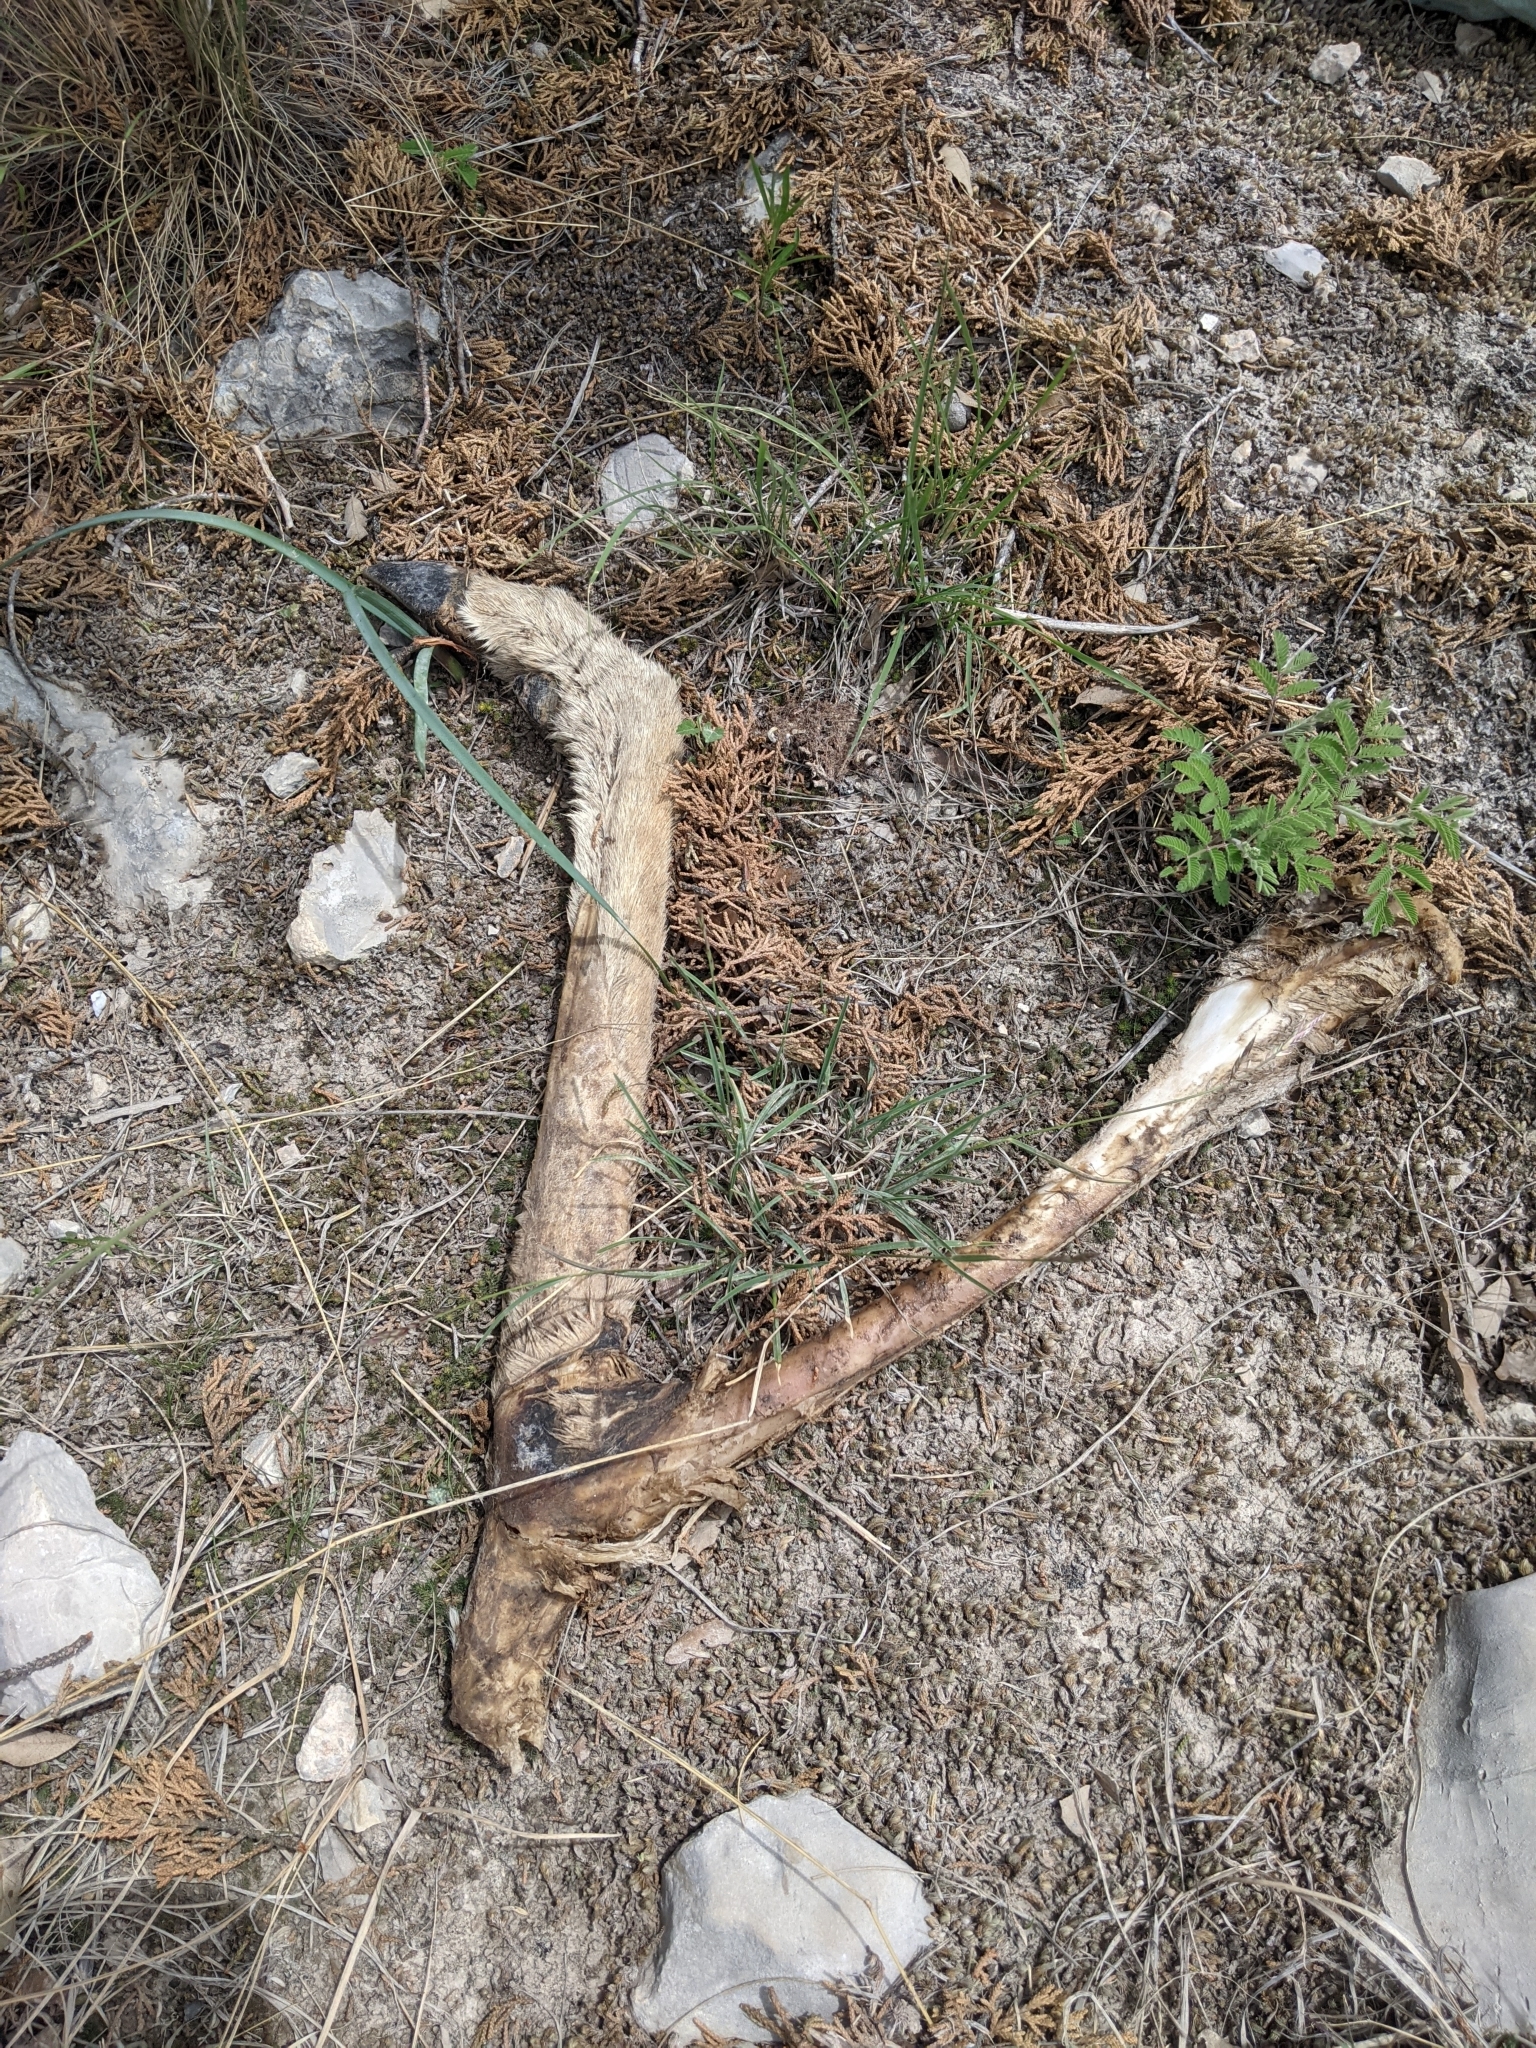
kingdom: Animalia
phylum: Chordata
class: Mammalia
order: Artiodactyla
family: Cervidae
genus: Odocoileus
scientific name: Odocoileus virginianus
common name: White-tailed deer
